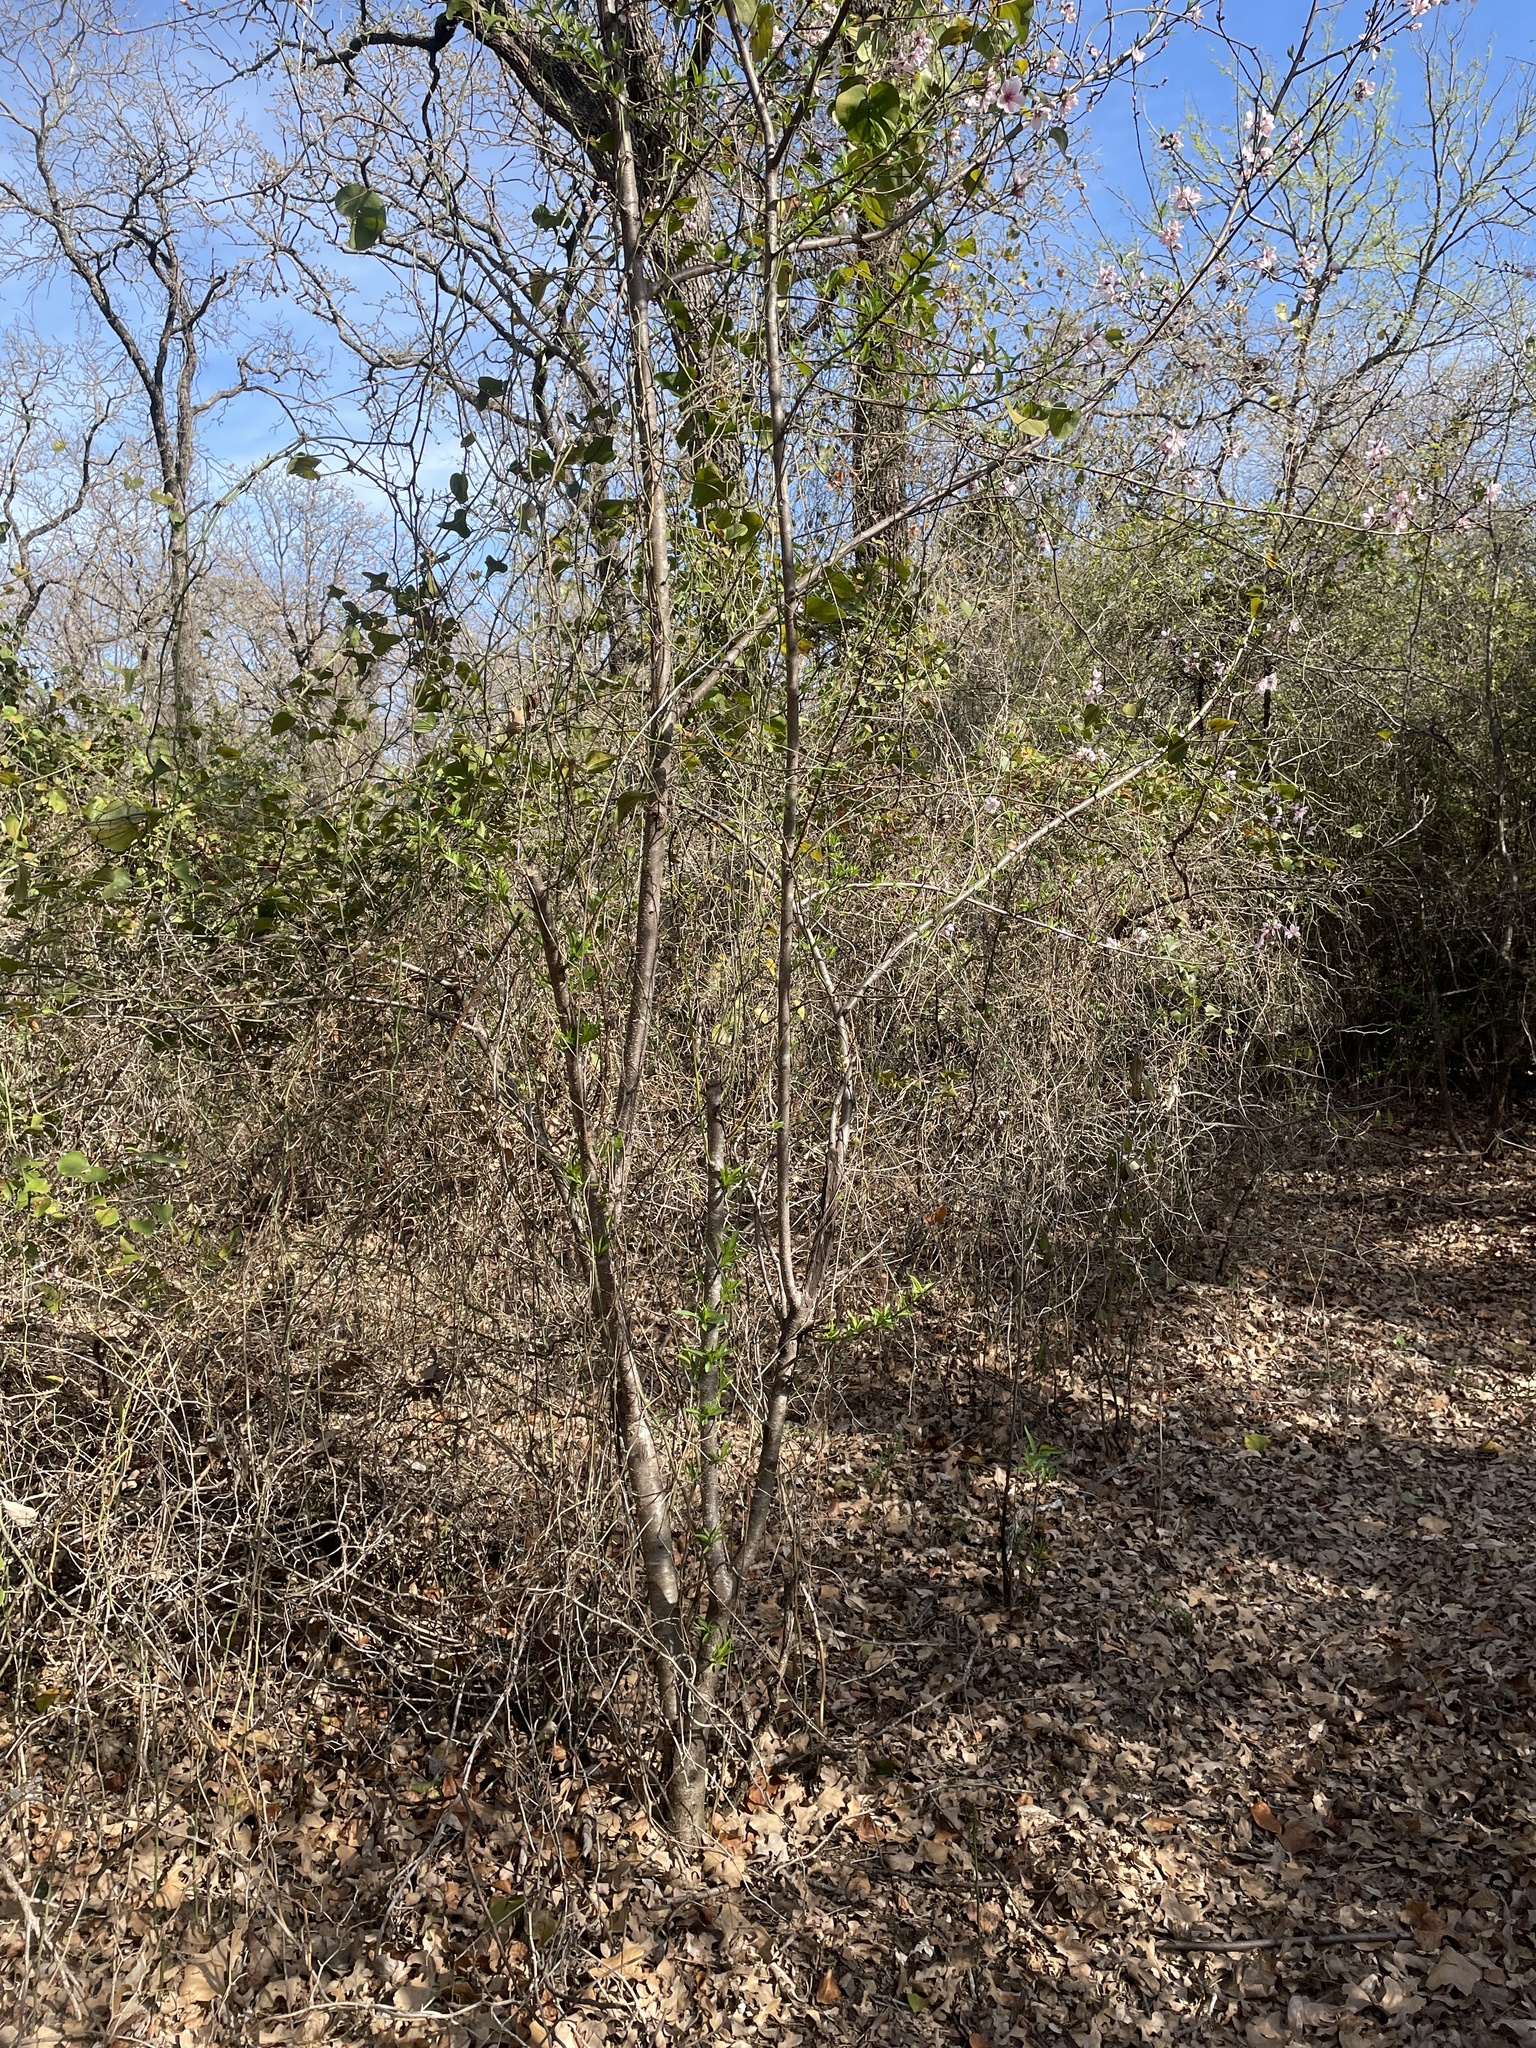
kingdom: Plantae
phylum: Tracheophyta
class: Magnoliopsida
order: Rosales
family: Rosaceae
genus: Prunus
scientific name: Prunus persica
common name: Peach
